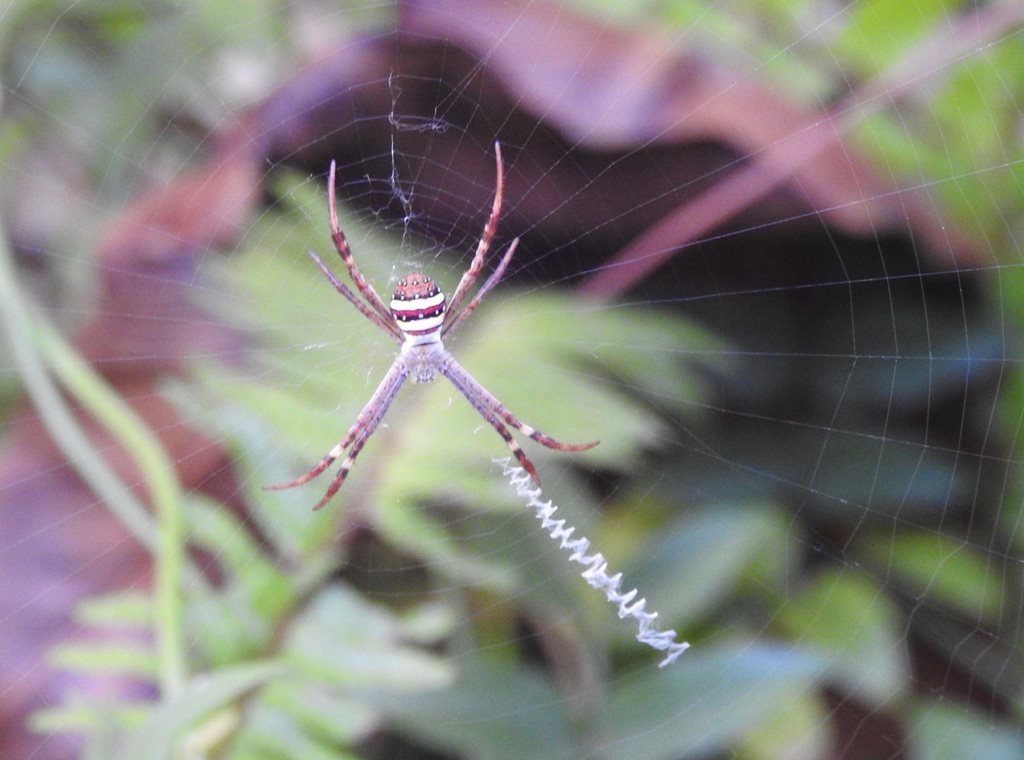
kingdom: Animalia
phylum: Arthropoda
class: Arachnida
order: Araneae
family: Araneidae
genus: Argiope
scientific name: Argiope keyserlingi
